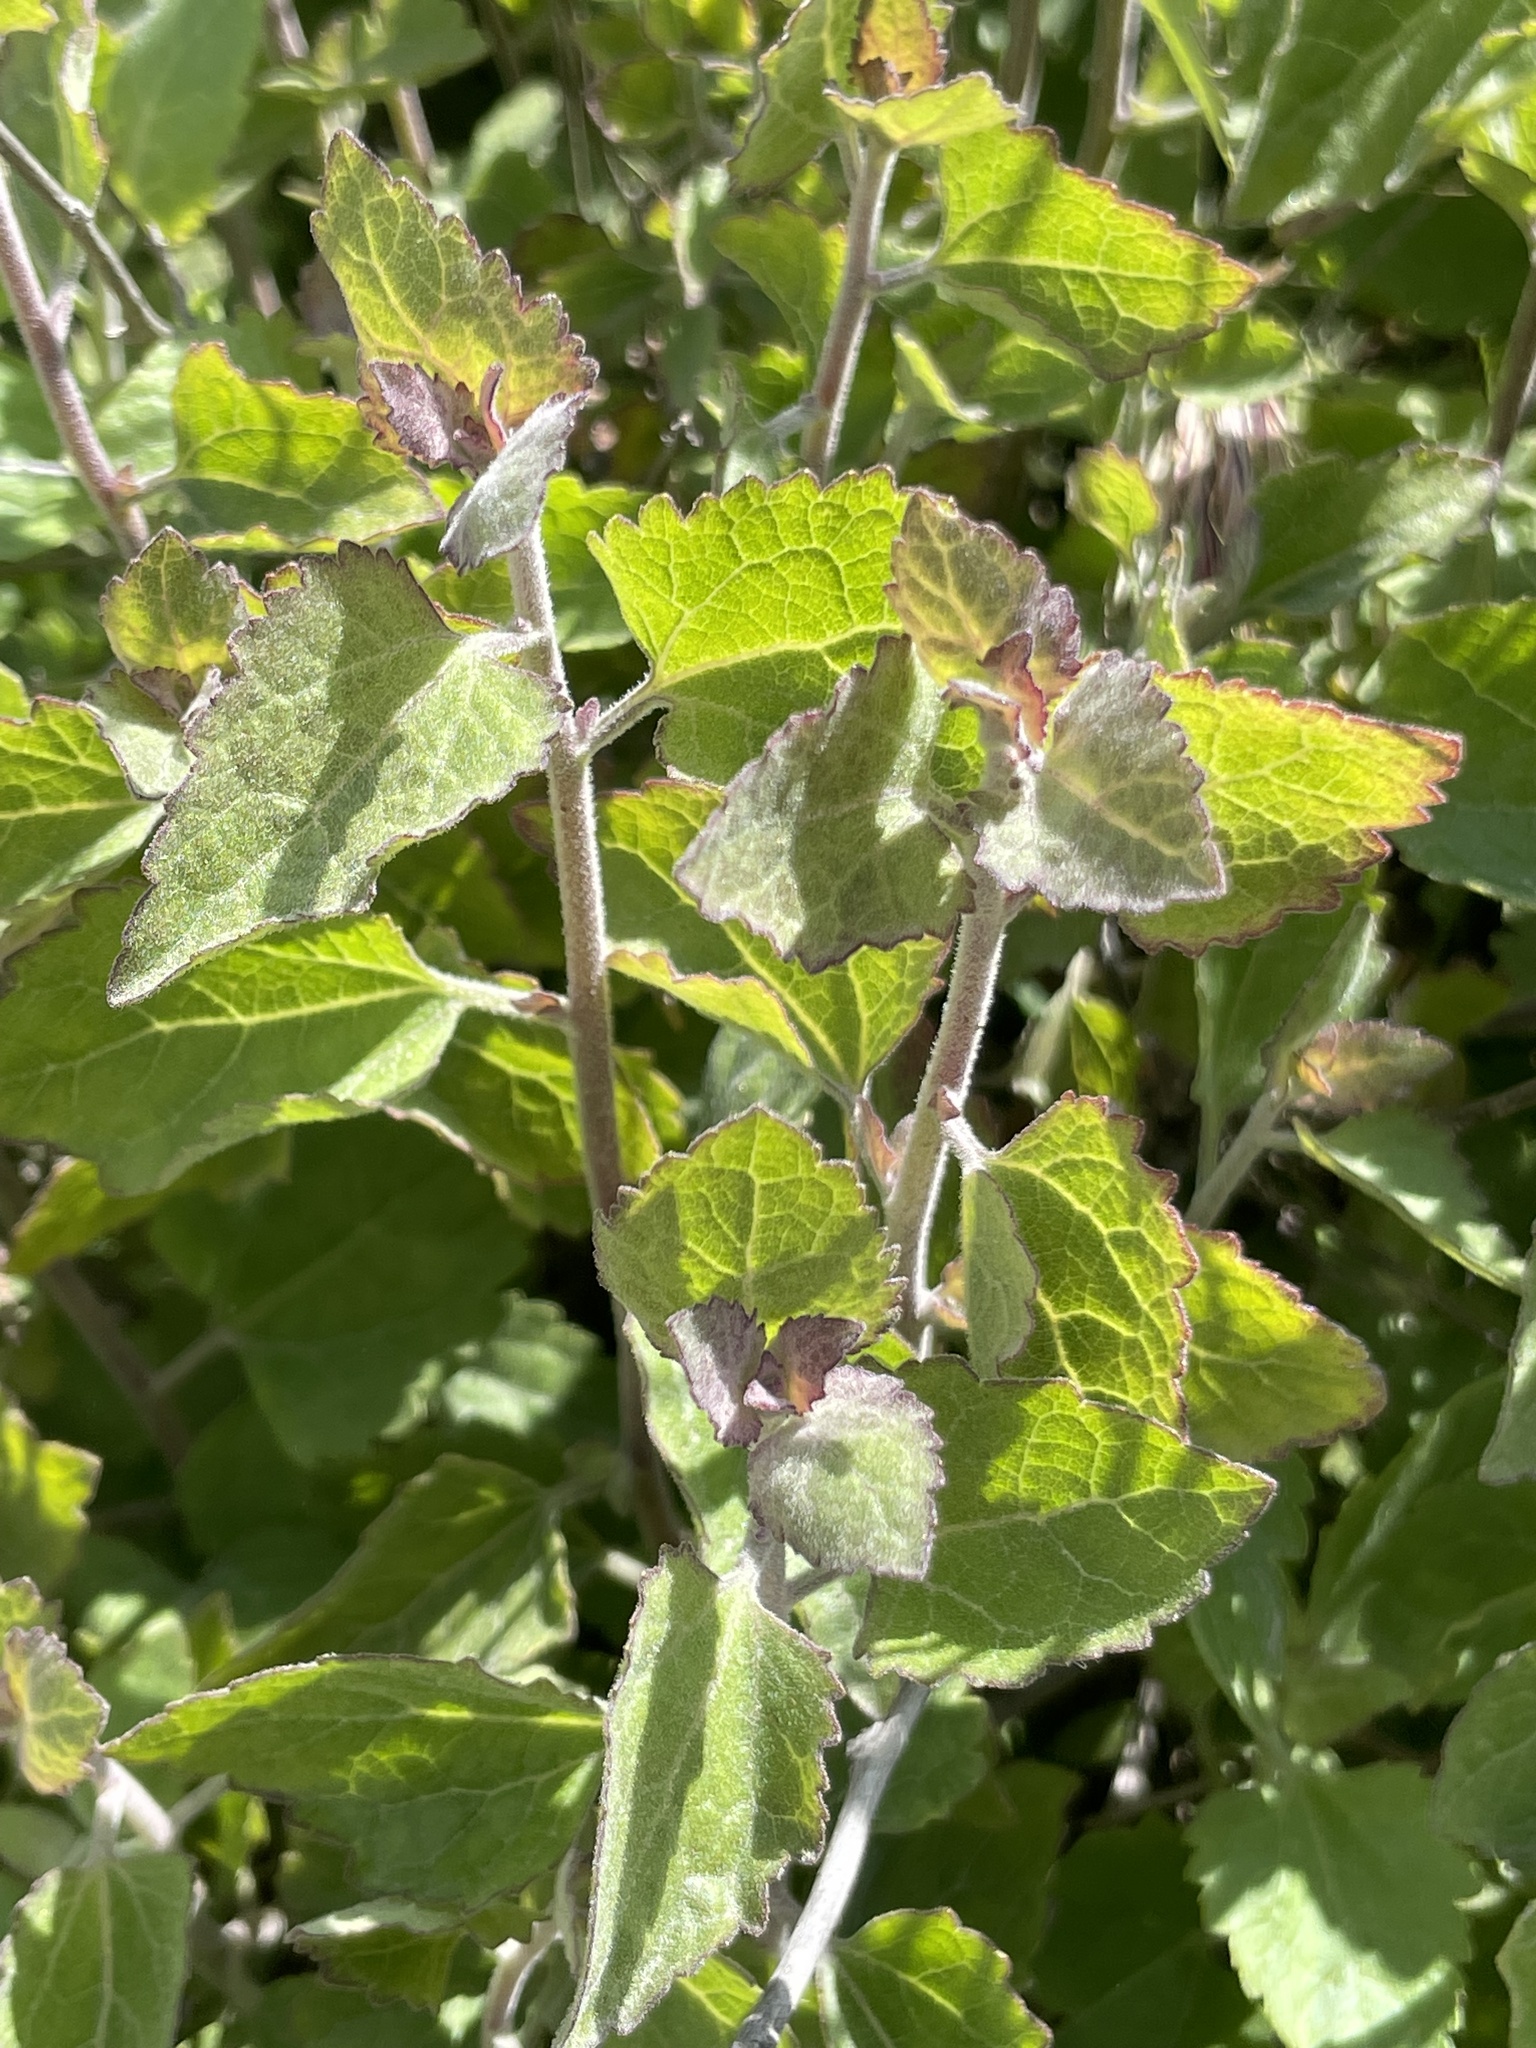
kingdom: Plantae
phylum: Tracheophyta
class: Magnoliopsida
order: Asterales
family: Asteraceae
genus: Brickellia
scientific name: Brickellia californica
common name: California brickellbush
